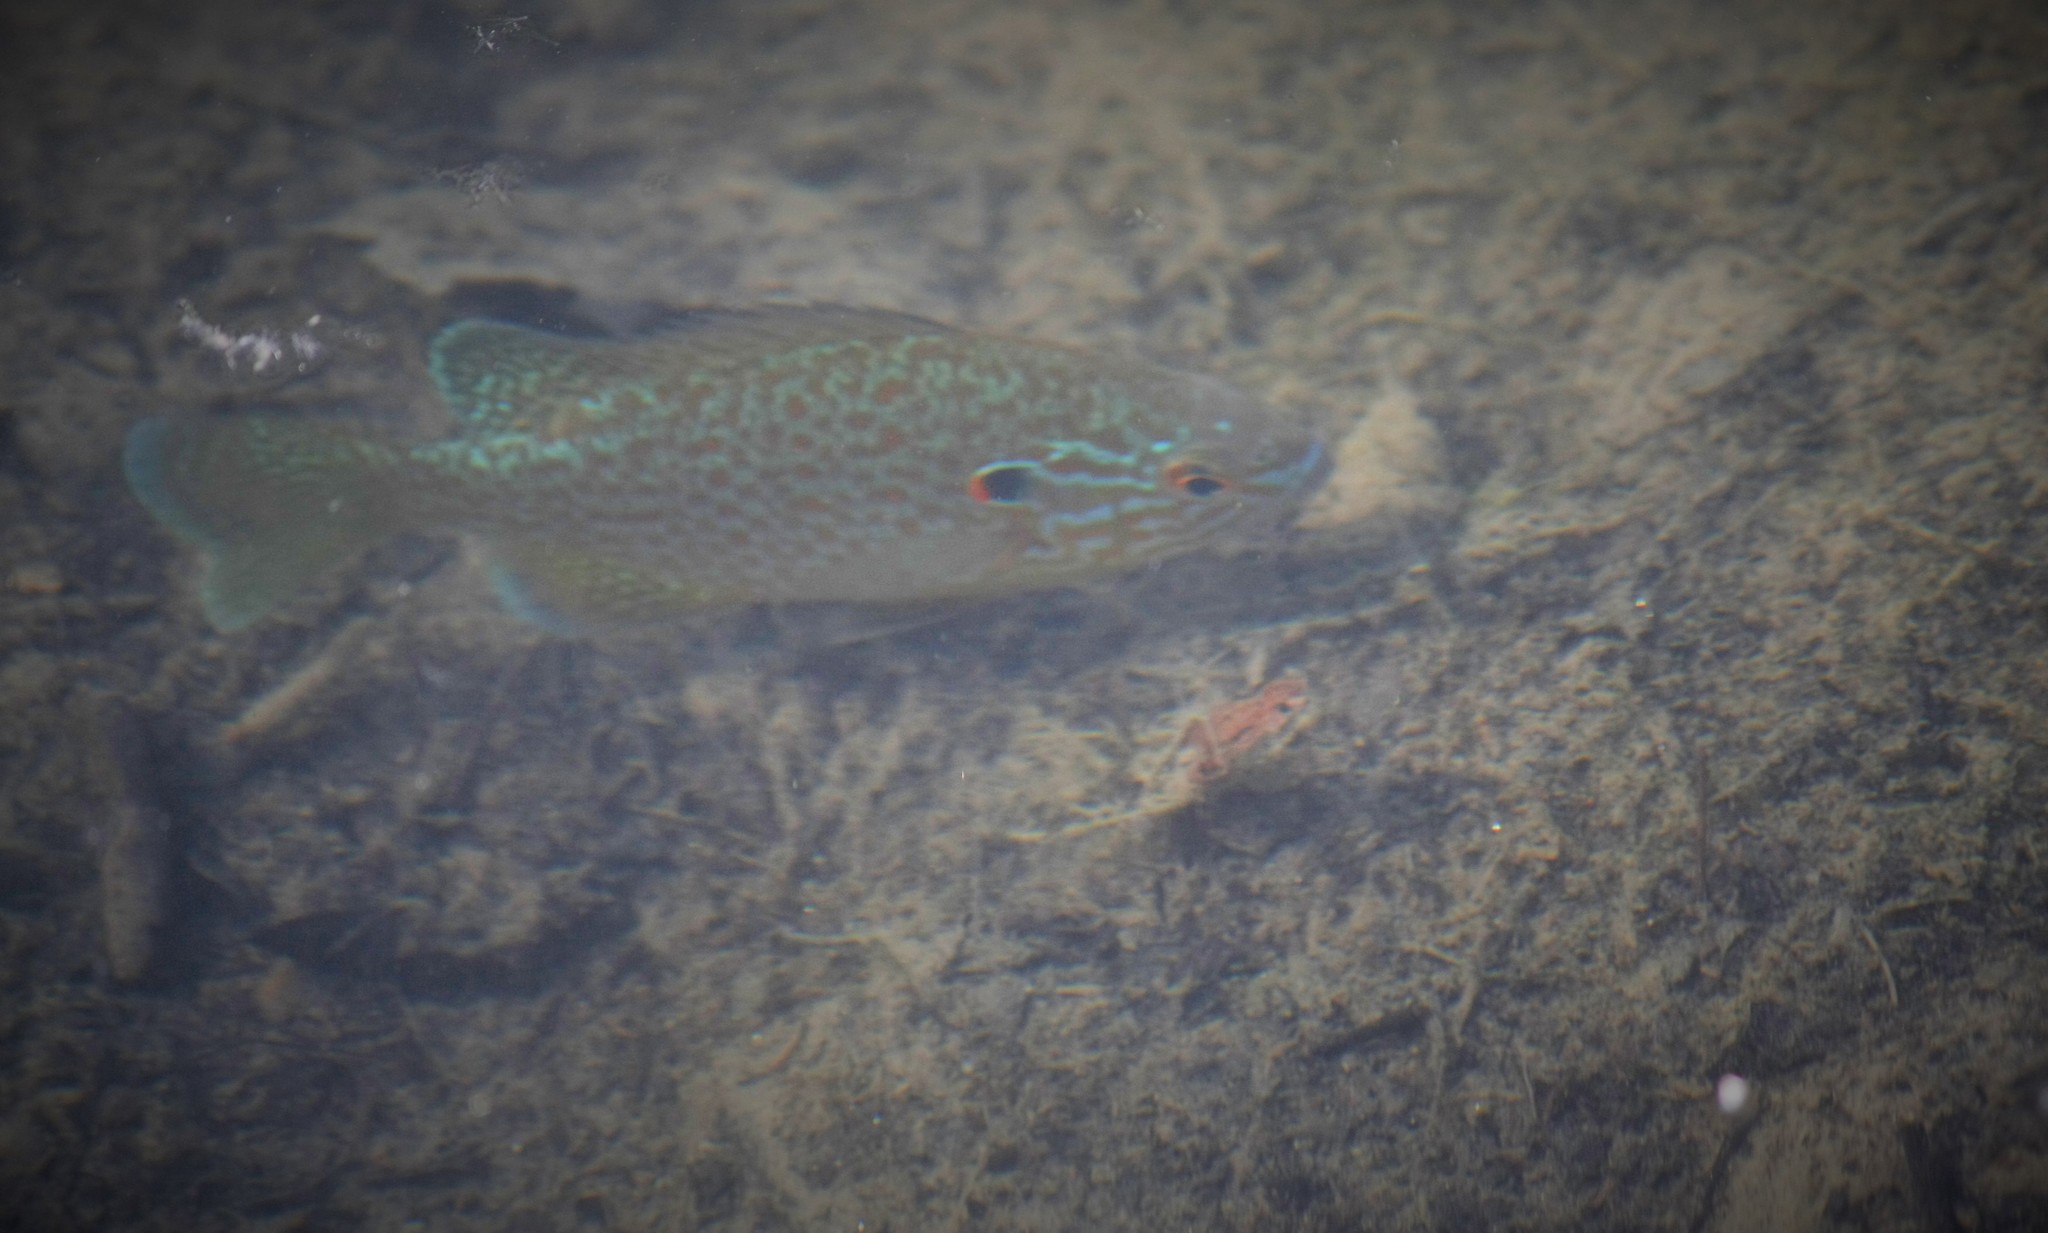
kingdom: Animalia
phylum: Chordata
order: Perciformes
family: Centrarchidae
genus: Lepomis
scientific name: Lepomis gibbosus
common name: Pumpkinseed
